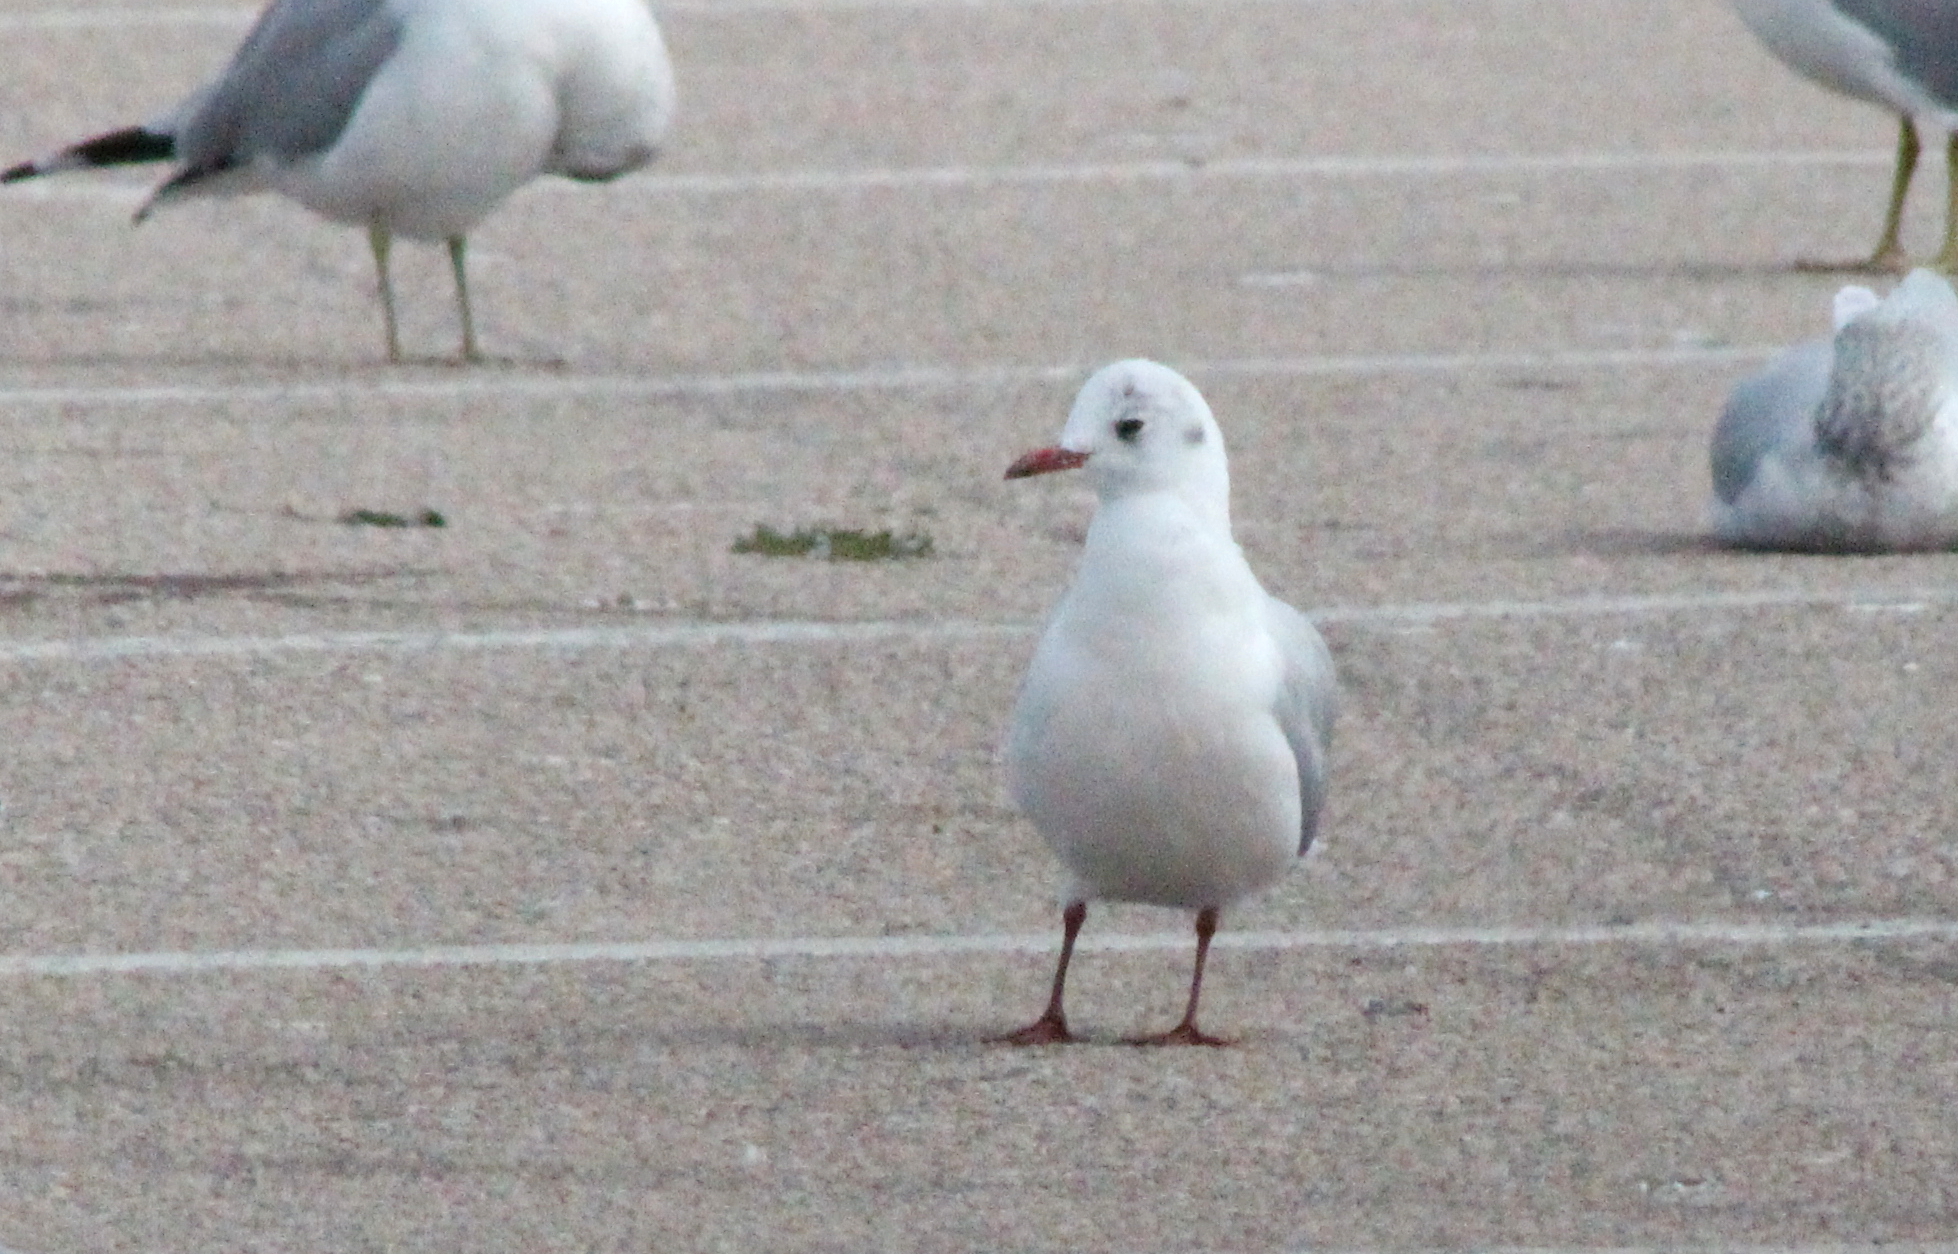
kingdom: Animalia
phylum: Chordata
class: Aves
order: Charadriiformes
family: Laridae
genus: Chroicocephalus
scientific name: Chroicocephalus ridibundus
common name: Black-headed gull
